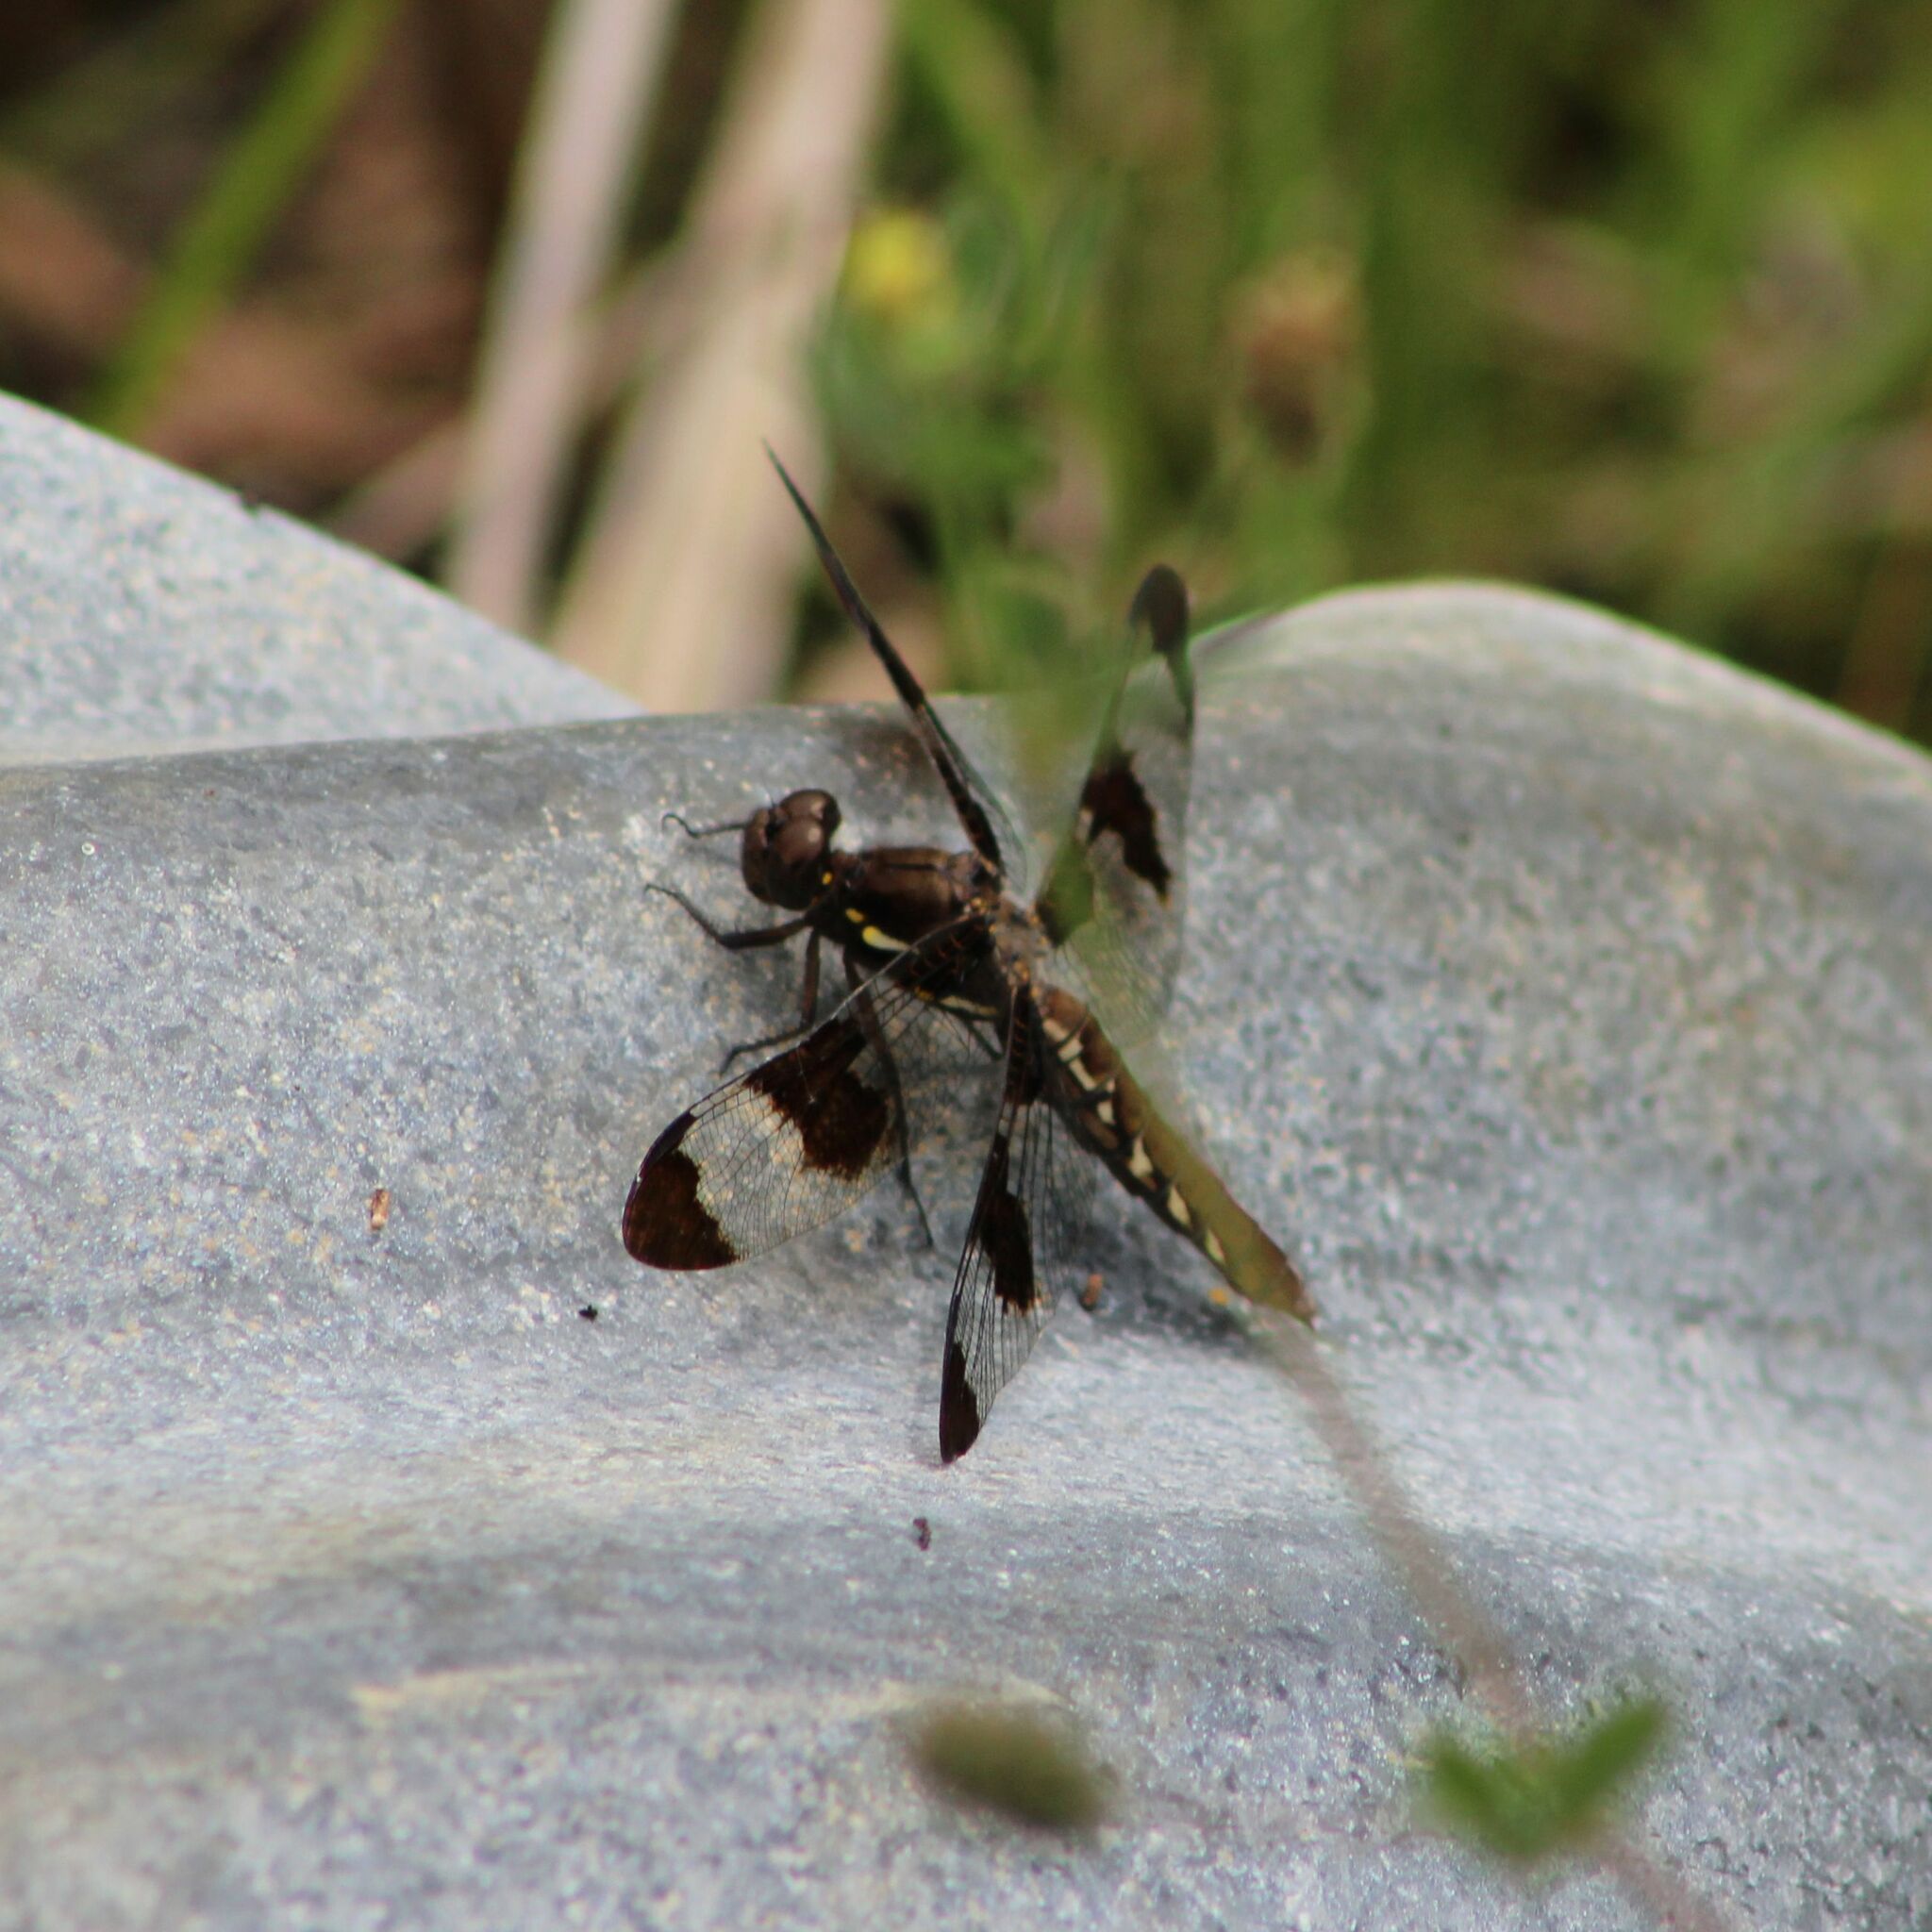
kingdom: Animalia
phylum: Arthropoda
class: Insecta
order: Odonata
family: Libellulidae
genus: Plathemis
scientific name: Plathemis lydia
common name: Common whitetail
